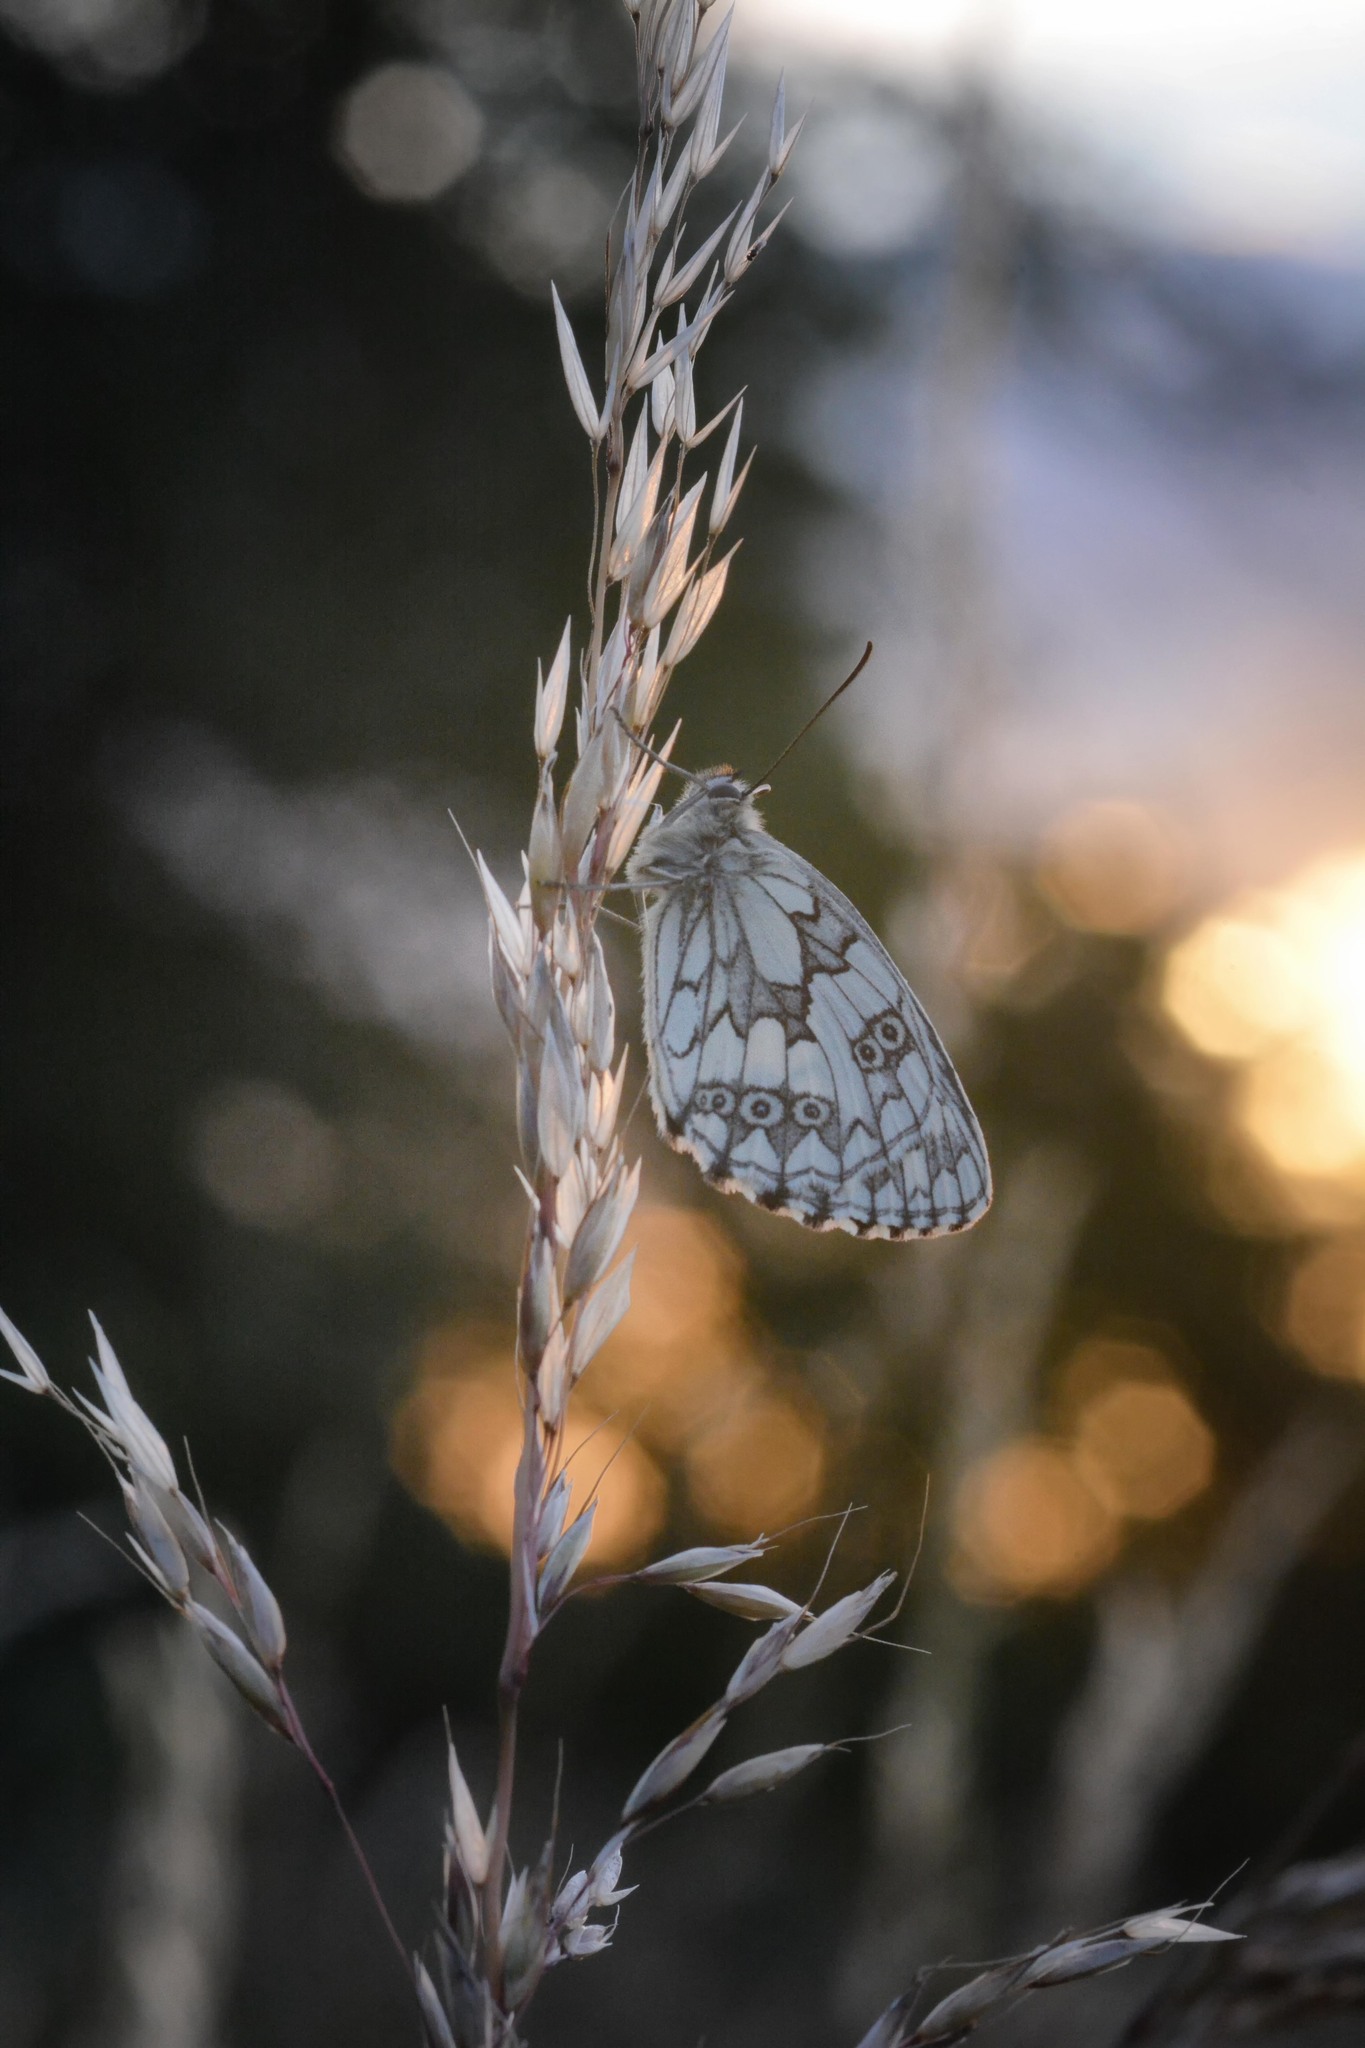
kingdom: Animalia
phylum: Arthropoda
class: Insecta
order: Lepidoptera
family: Nymphalidae
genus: Melanargia
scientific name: Melanargia galathea
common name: Marbled white
